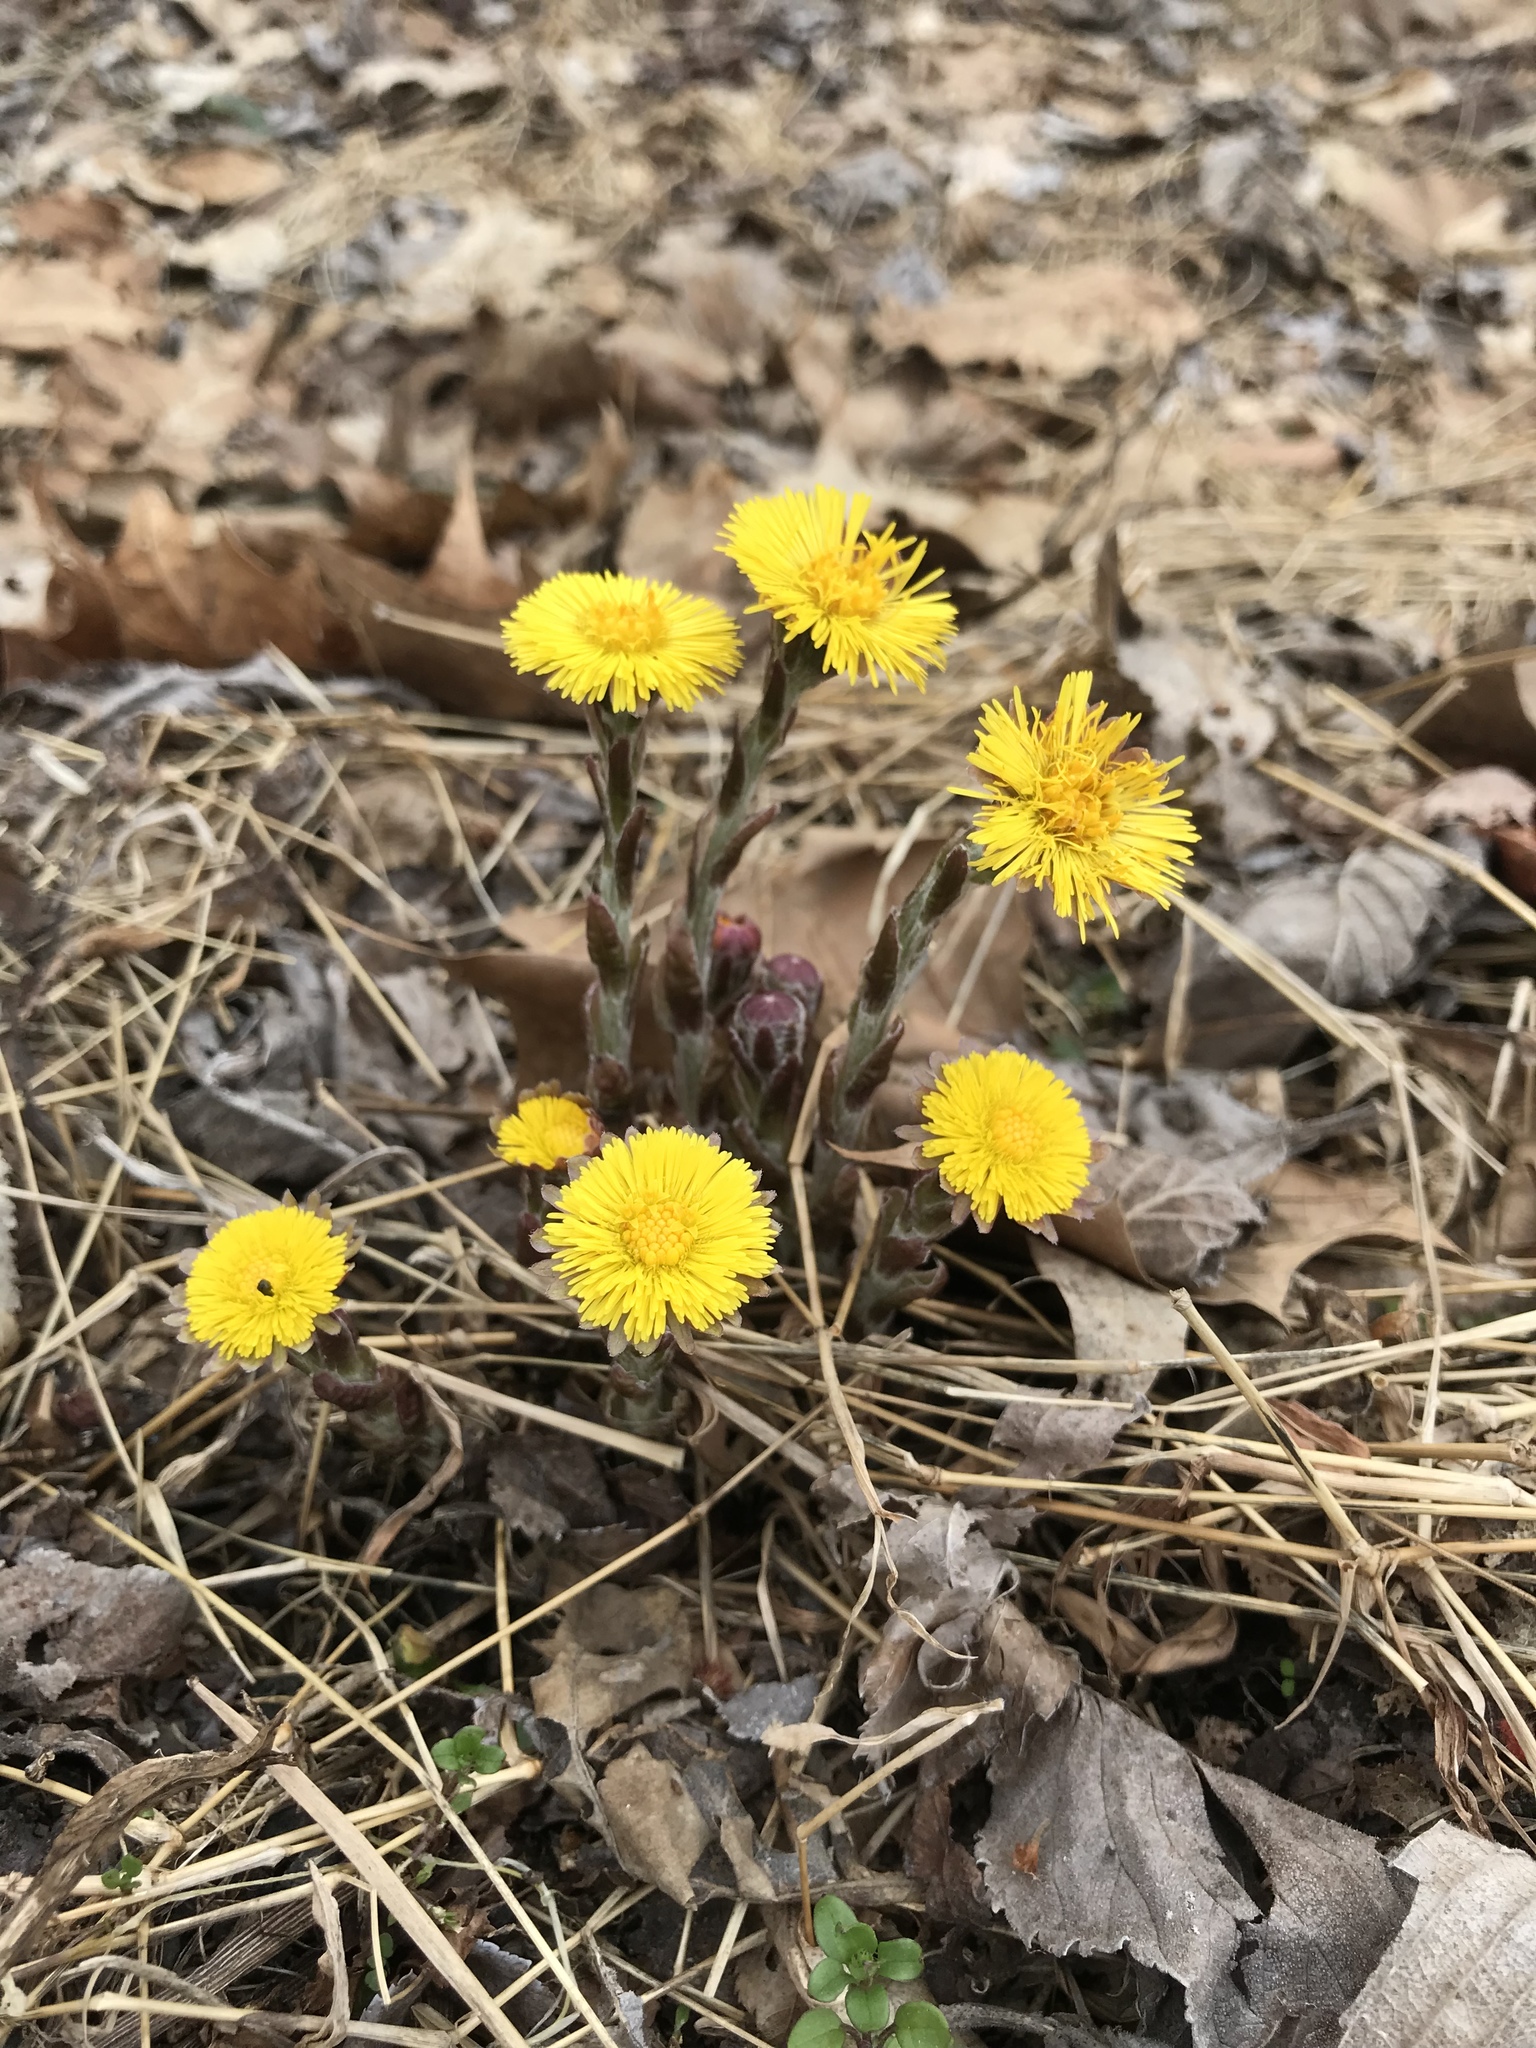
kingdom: Plantae
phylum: Tracheophyta
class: Magnoliopsida
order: Asterales
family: Asteraceae
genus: Tussilago
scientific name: Tussilago farfara
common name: Coltsfoot
